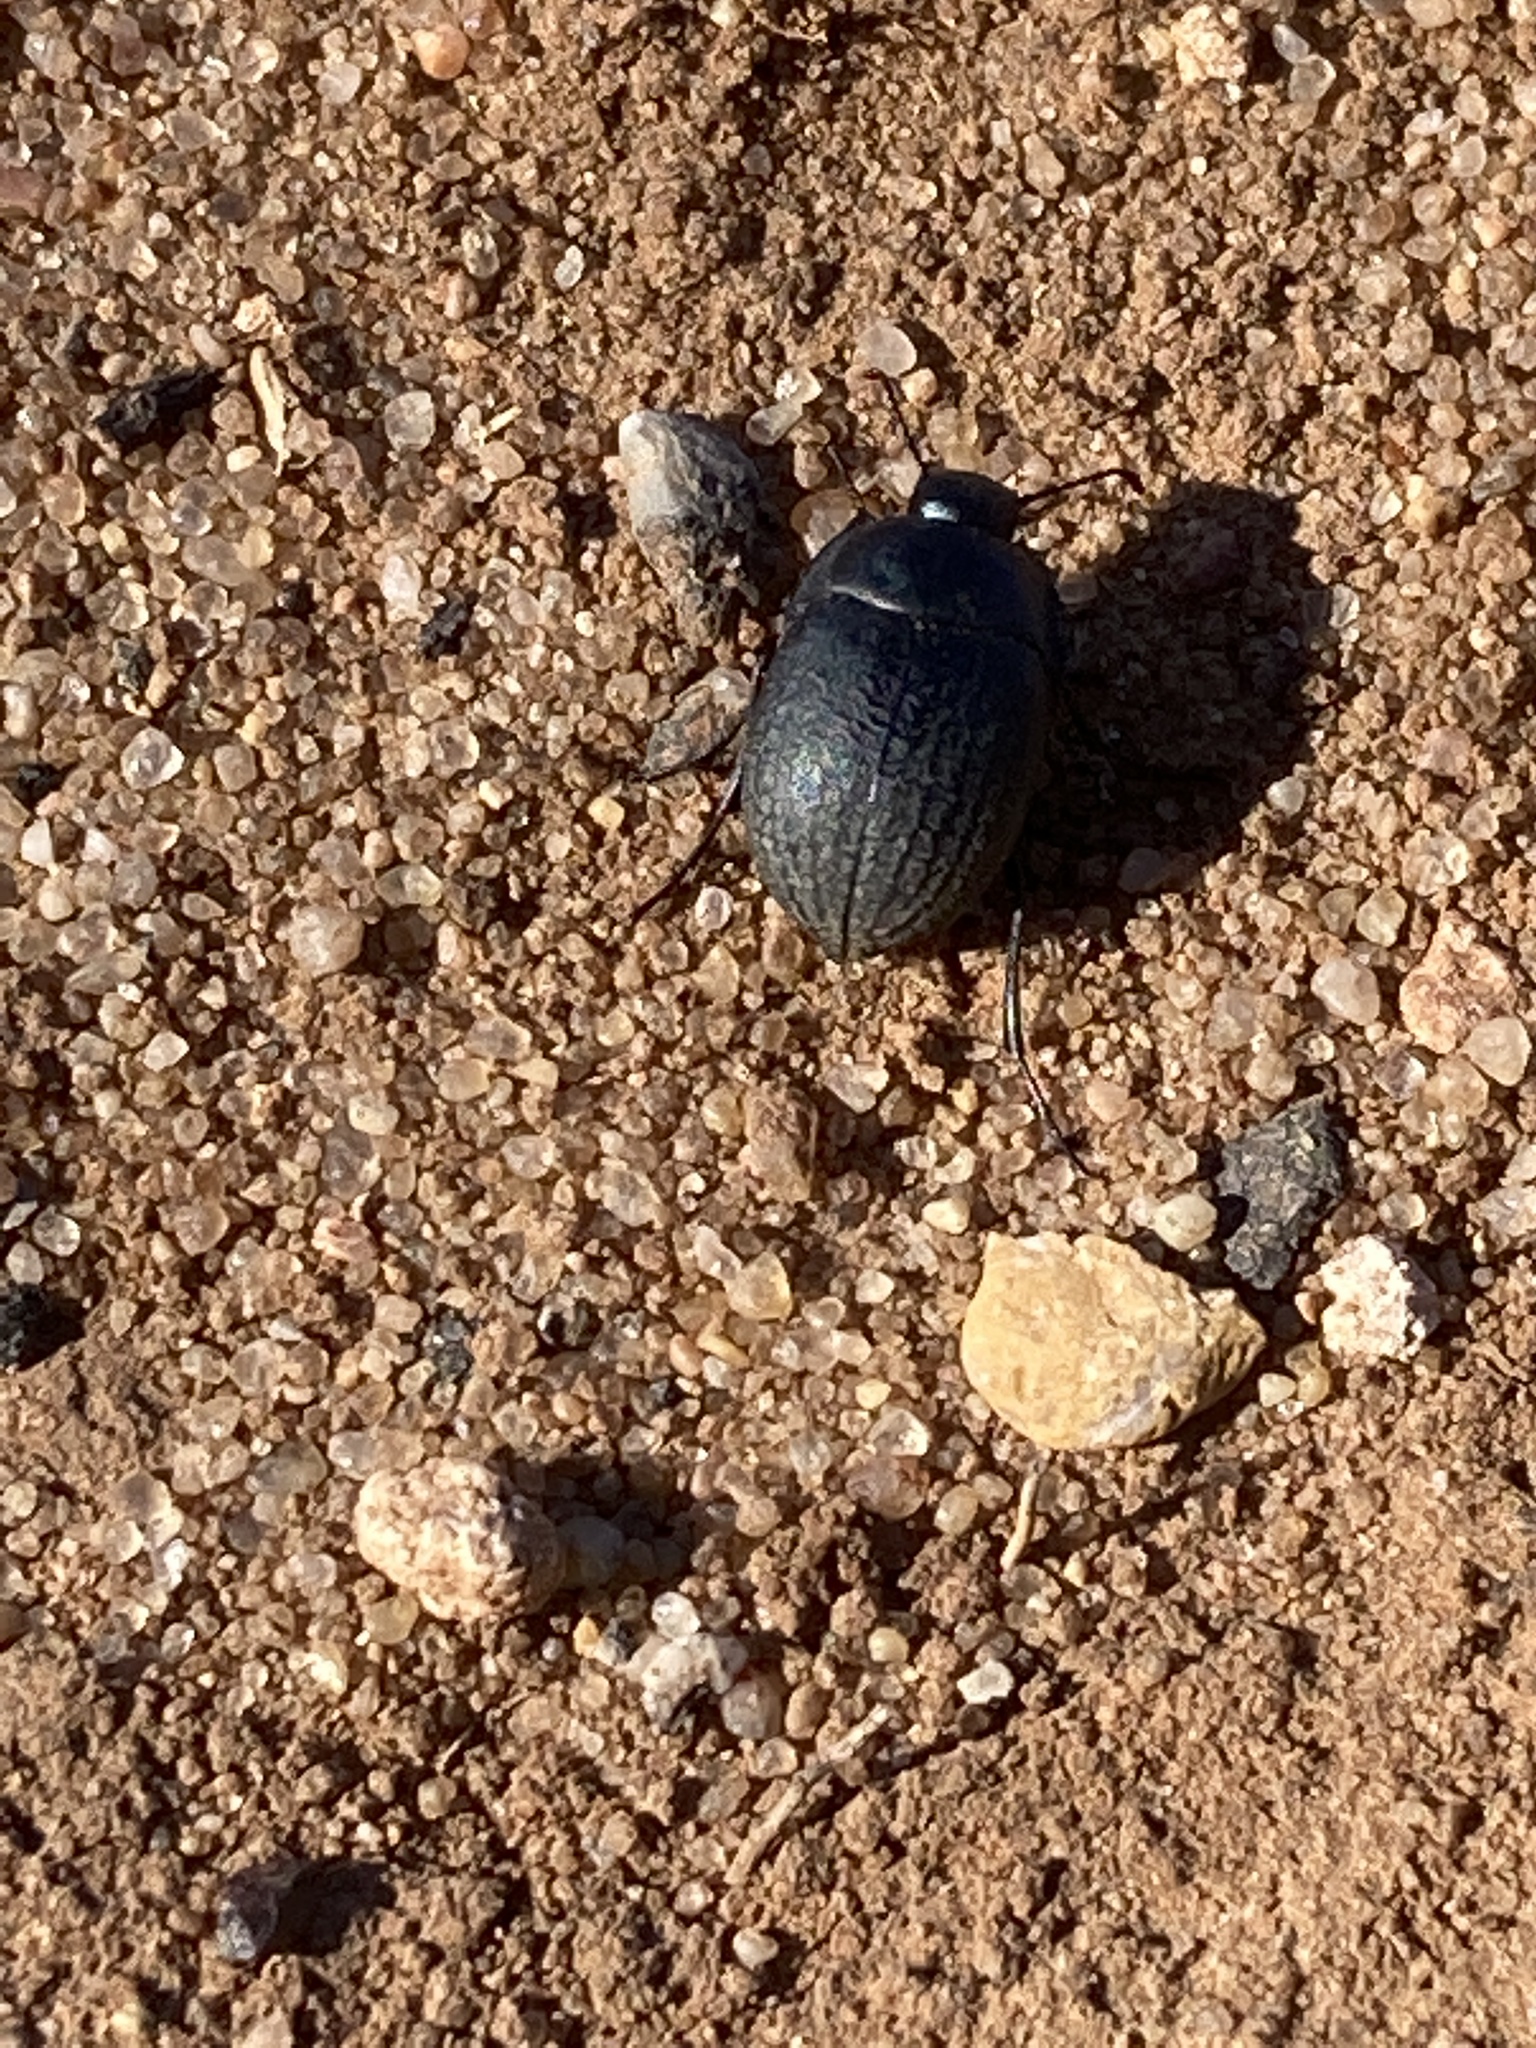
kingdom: Animalia
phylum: Arthropoda
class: Insecta
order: Coleoptera
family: Tenebrionidae
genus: Eusattus
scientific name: Eusattus reticulatus
